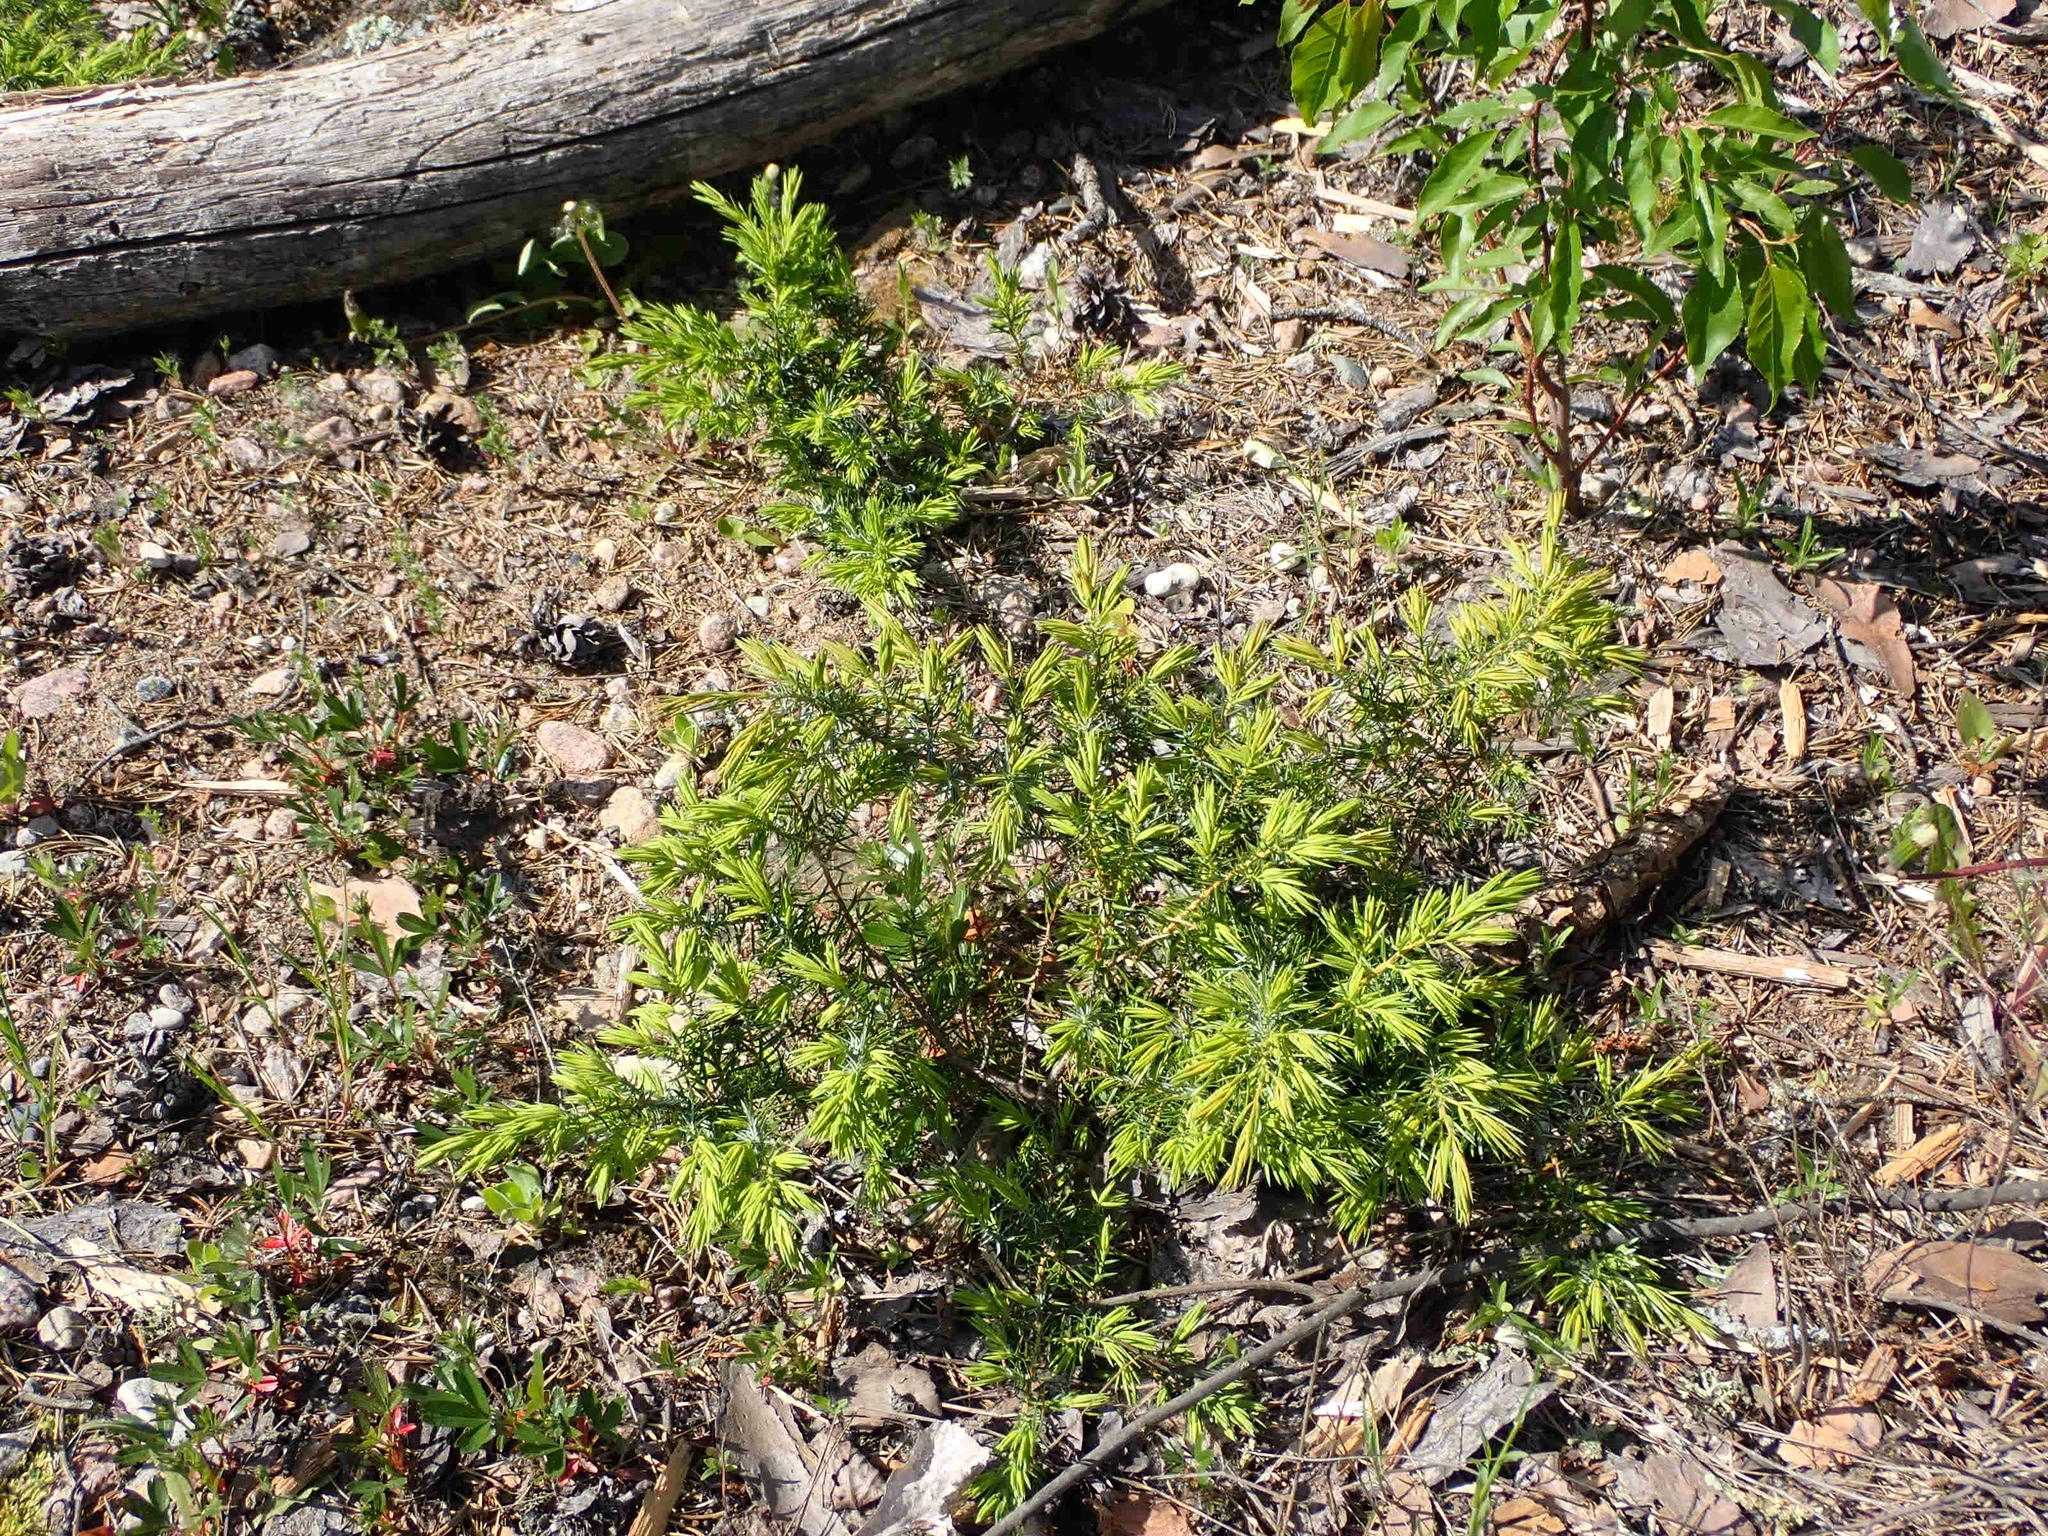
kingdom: Plantae
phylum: Tracheophyta
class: Pinopsida
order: Pinales
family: Cupressaceae
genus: Juniperus
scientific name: Juniperus communis
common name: Common juniper
